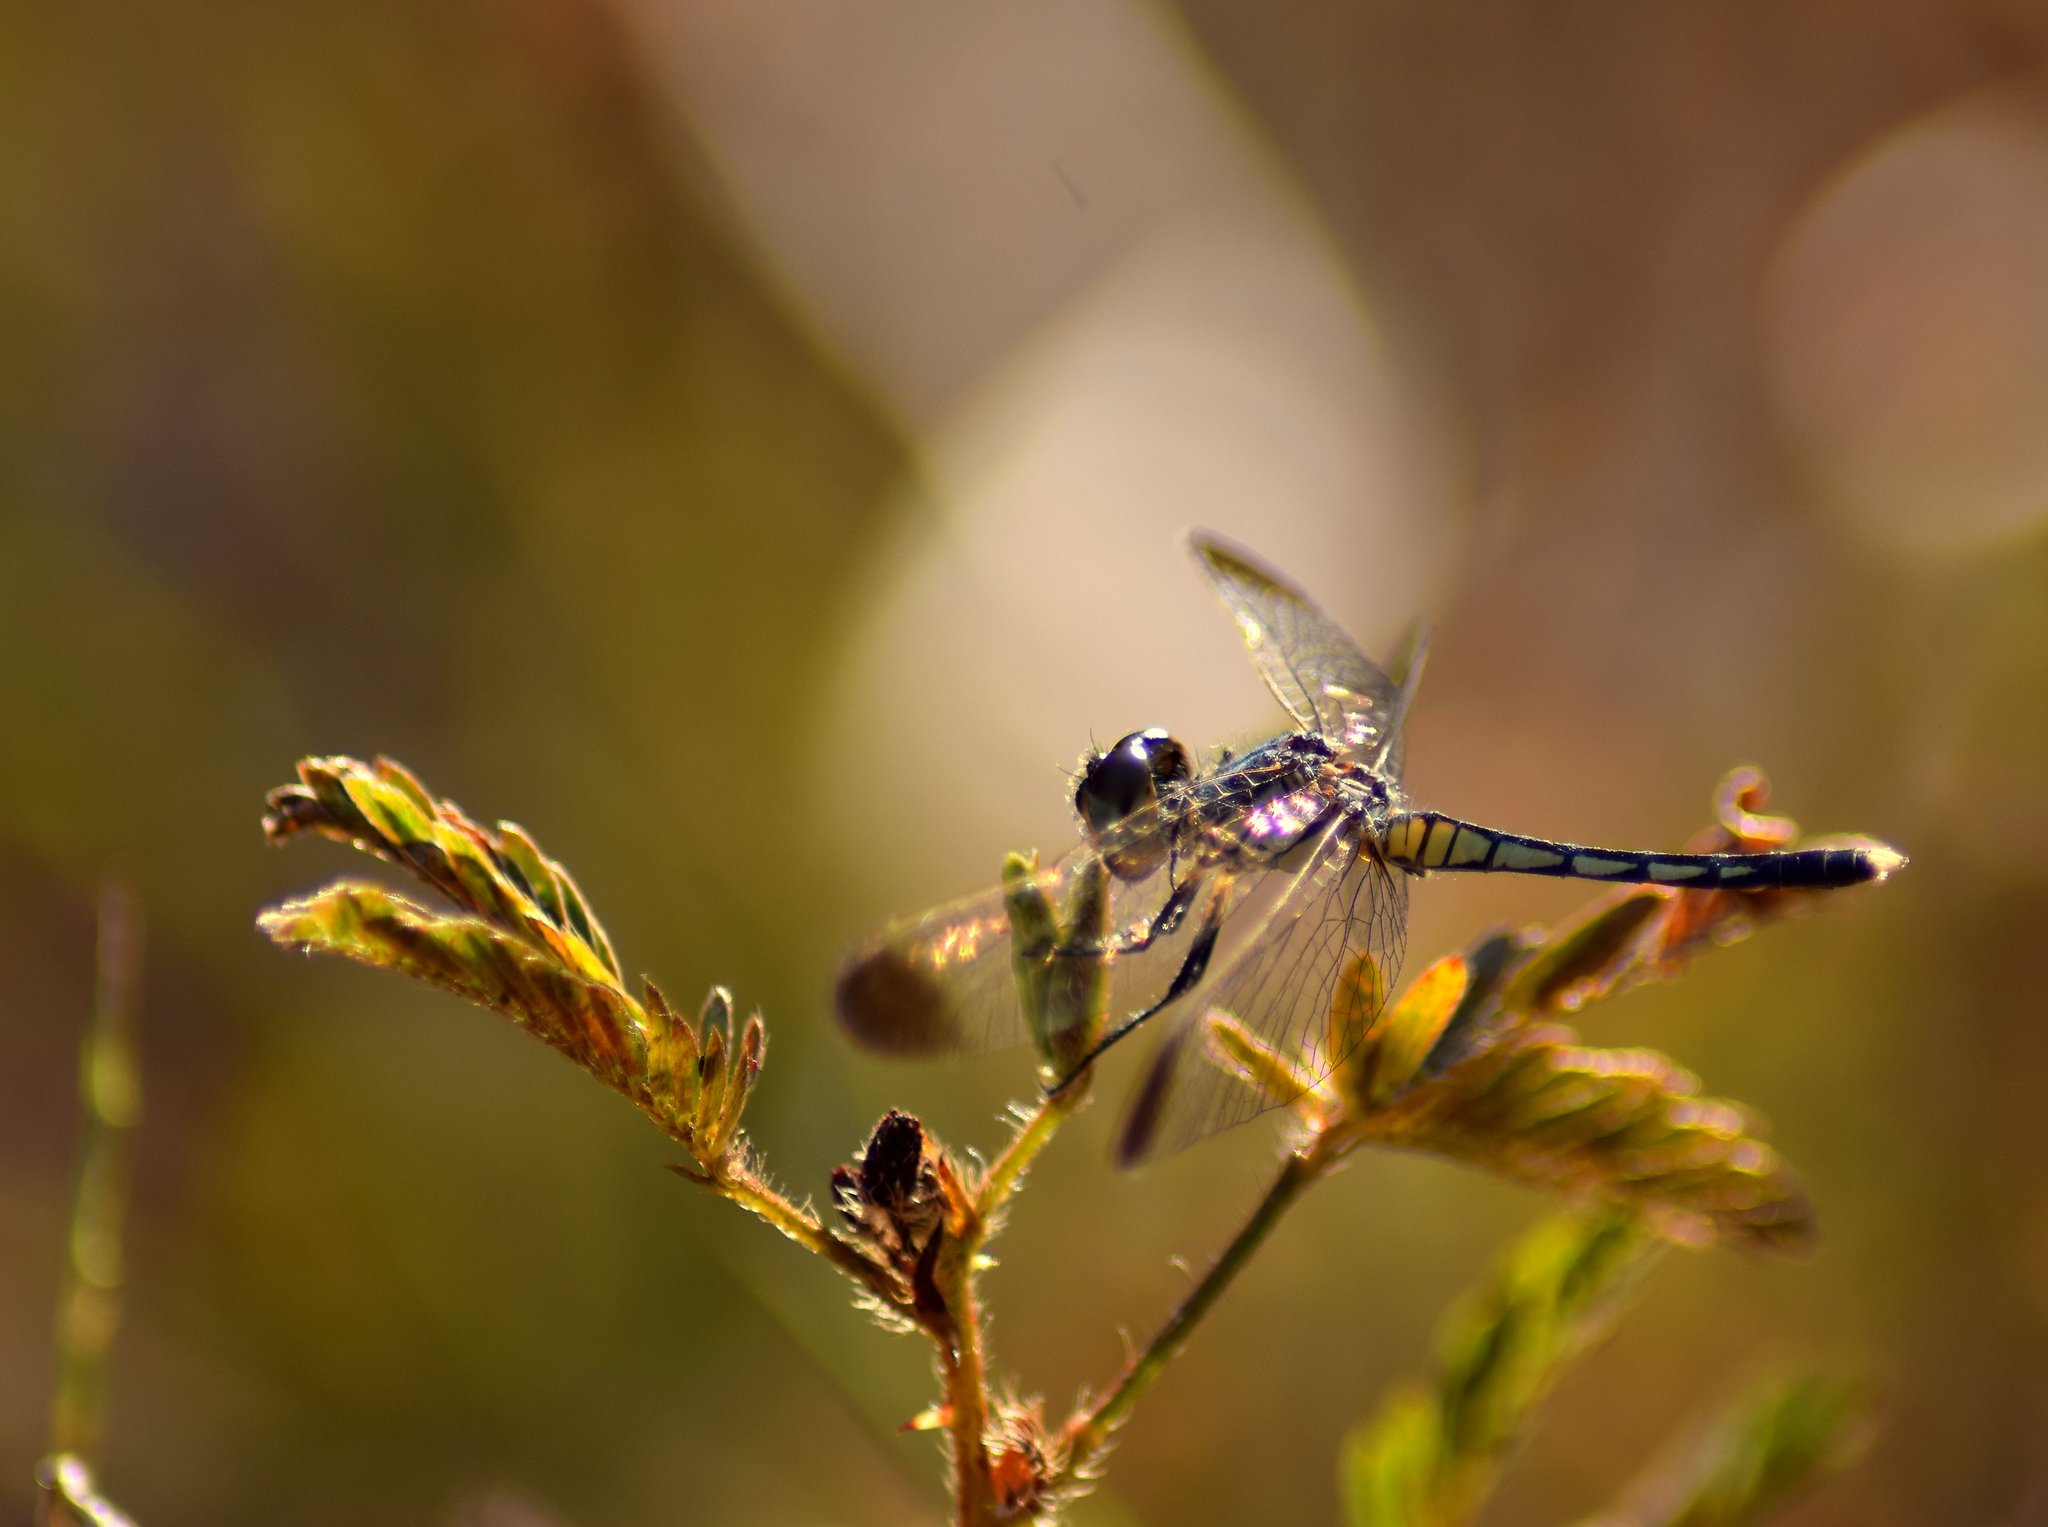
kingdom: Animalia
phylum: Arthropoda
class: Insecta
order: Odonata
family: Libellulidae
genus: Diplacodes
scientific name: Diplacodes nebulosa
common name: Black-tipped percher
